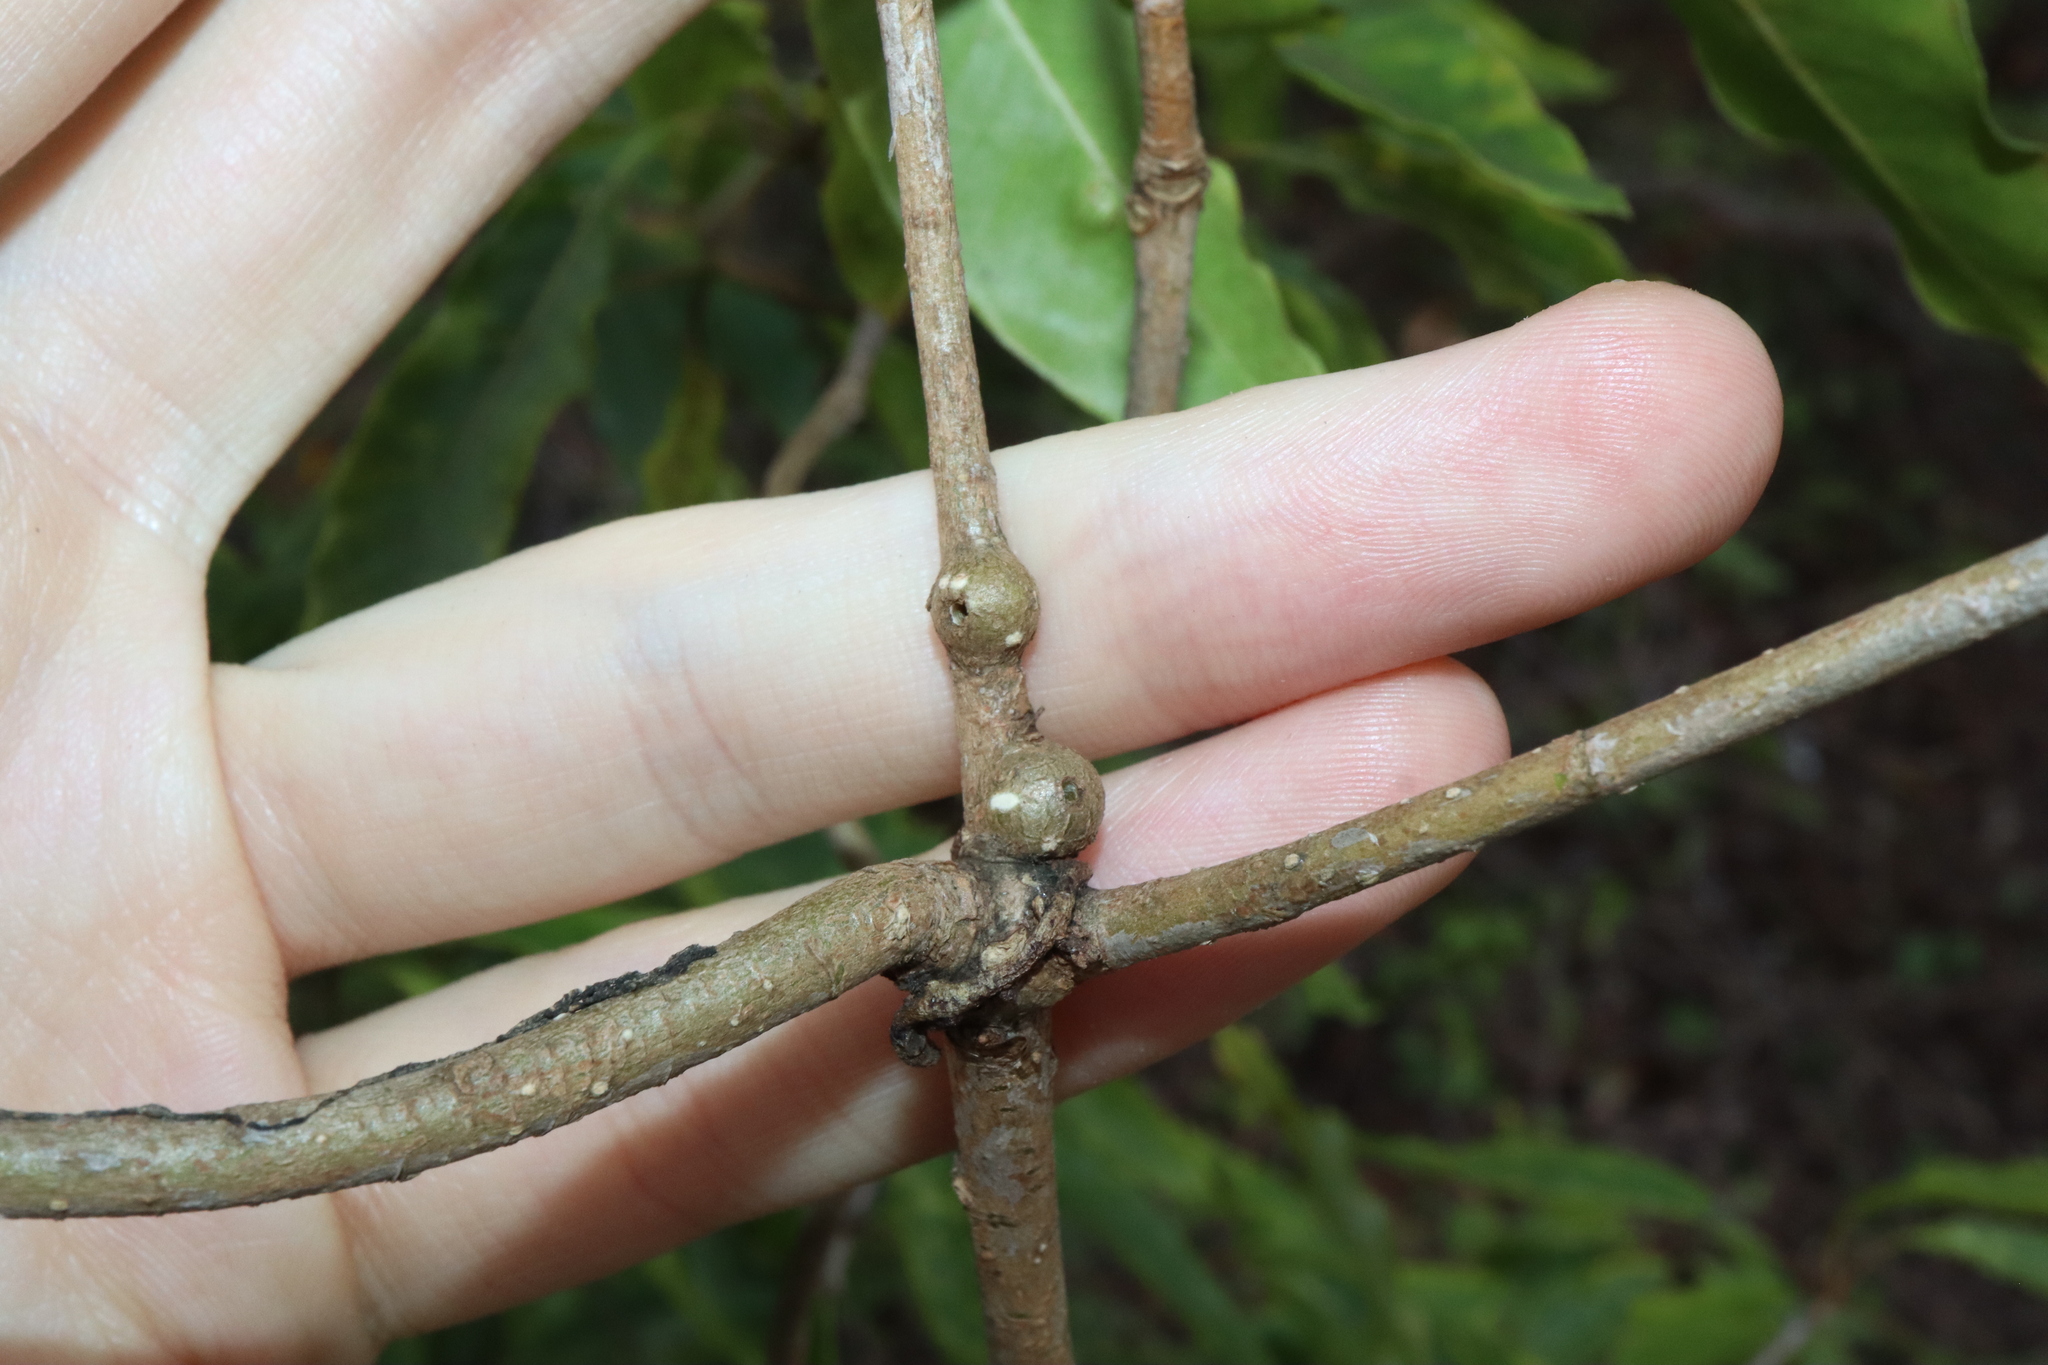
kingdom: Animalia
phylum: Arthropoda
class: Insecta
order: Diptera
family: Agromyzidae
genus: Phytoliriomyza
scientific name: Phytoliriomyza pittosporocaulis
